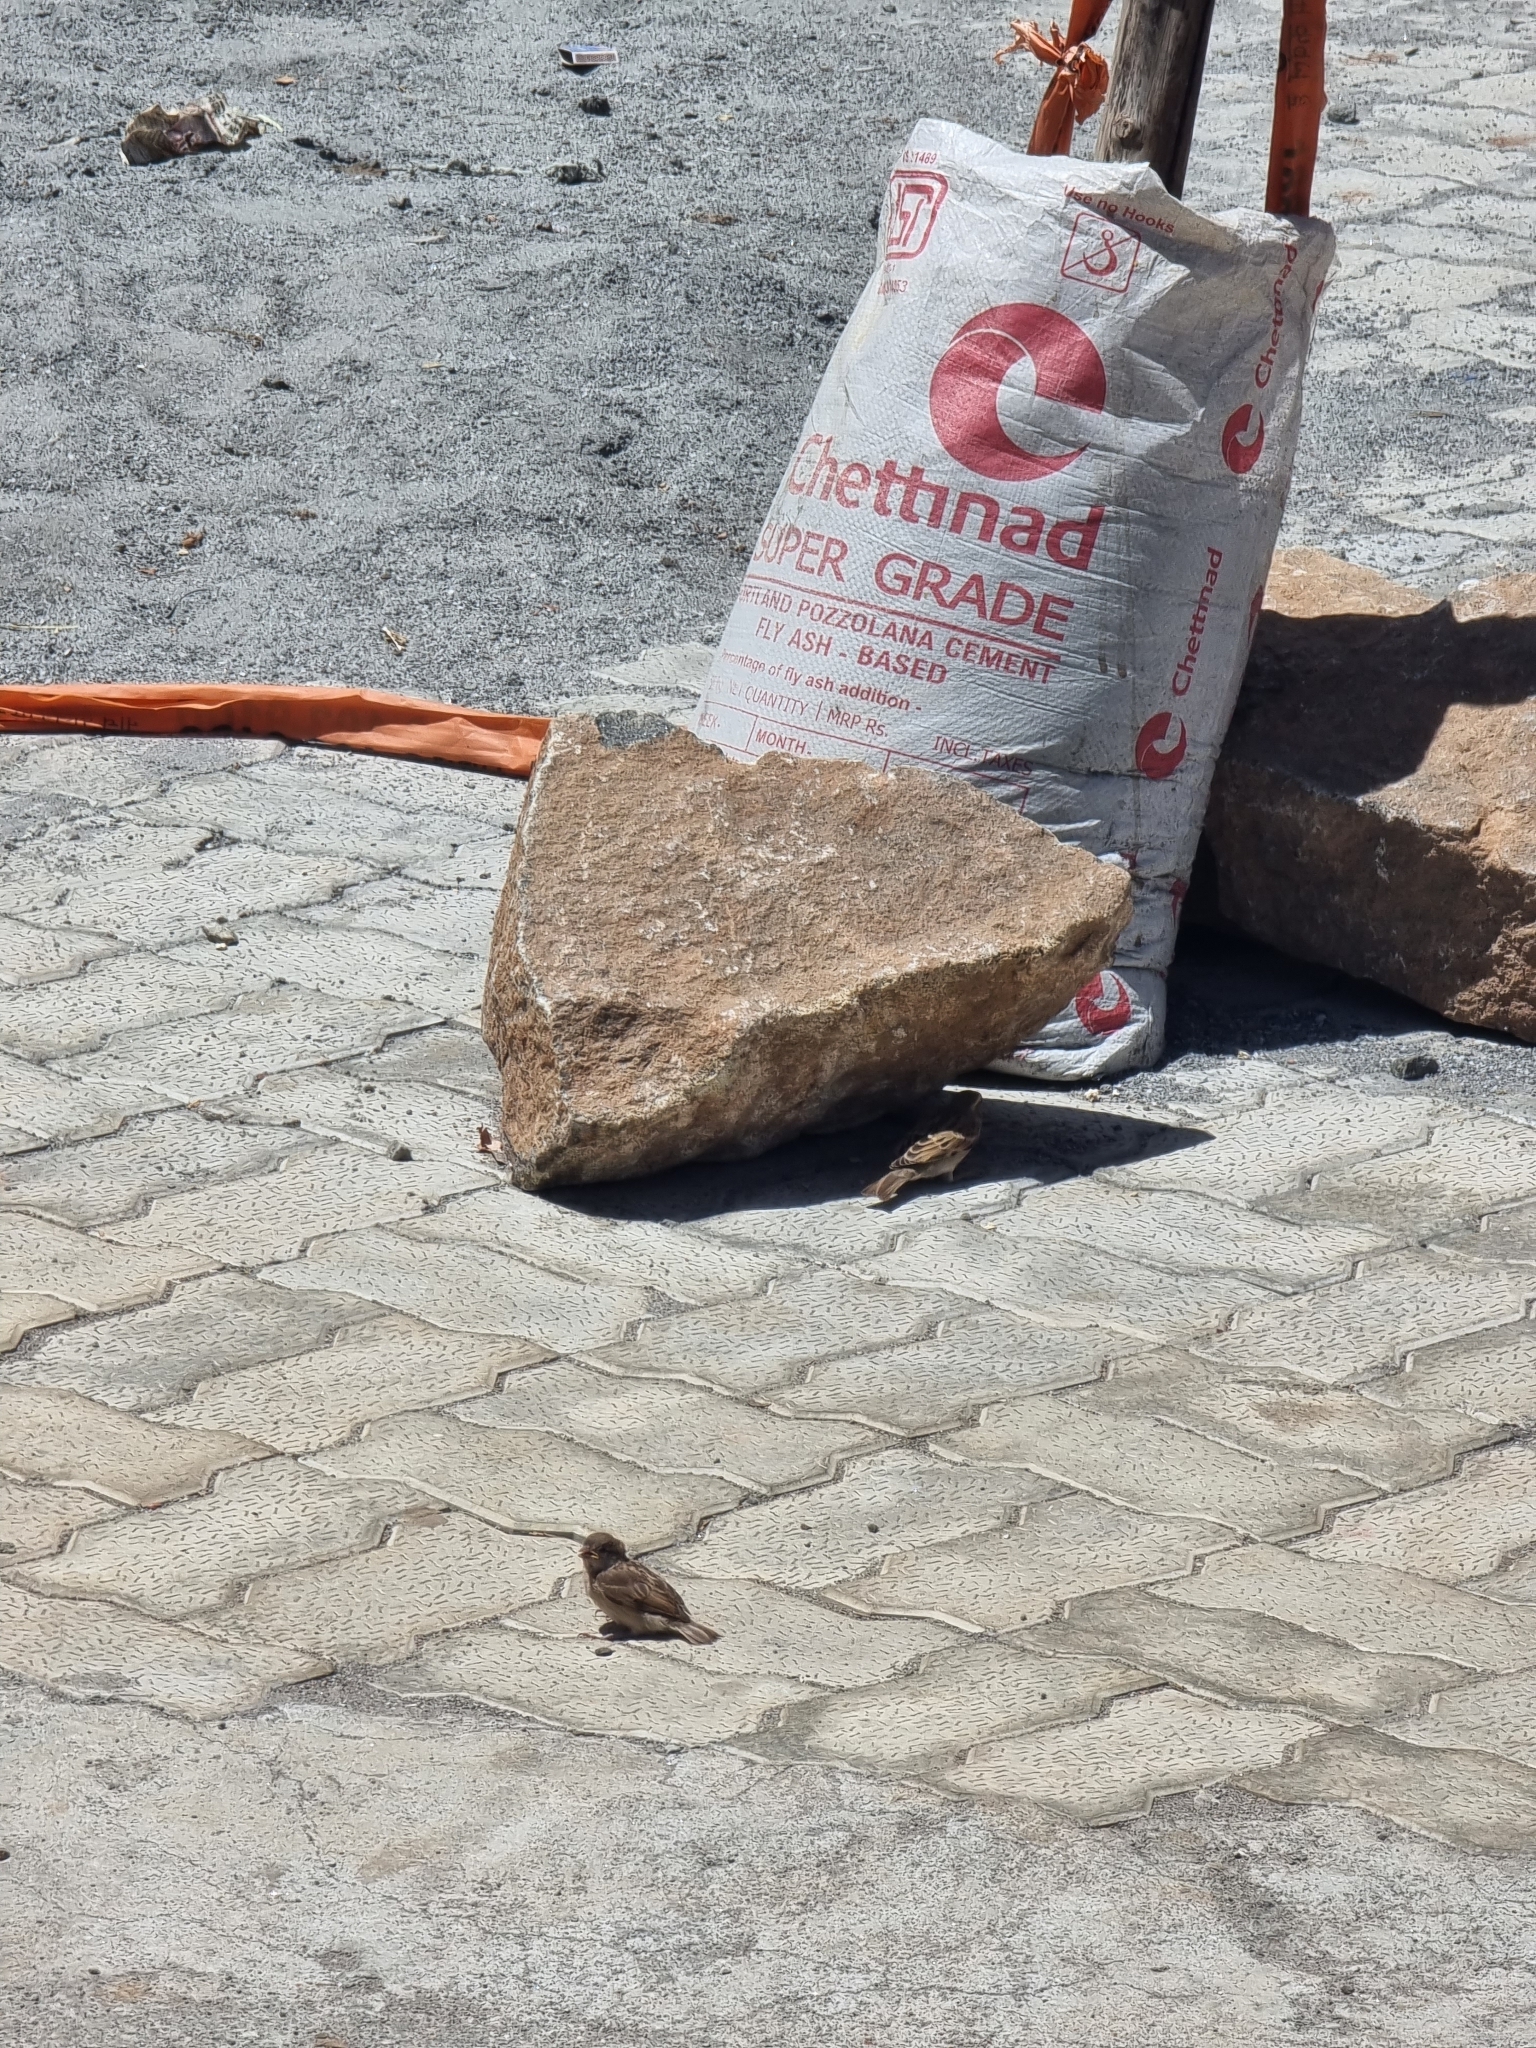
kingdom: Animalia
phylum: Chordata
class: Aves
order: Passeriformes
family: Passeridae
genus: Passer
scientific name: Passer domesticus
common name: House sparrow
